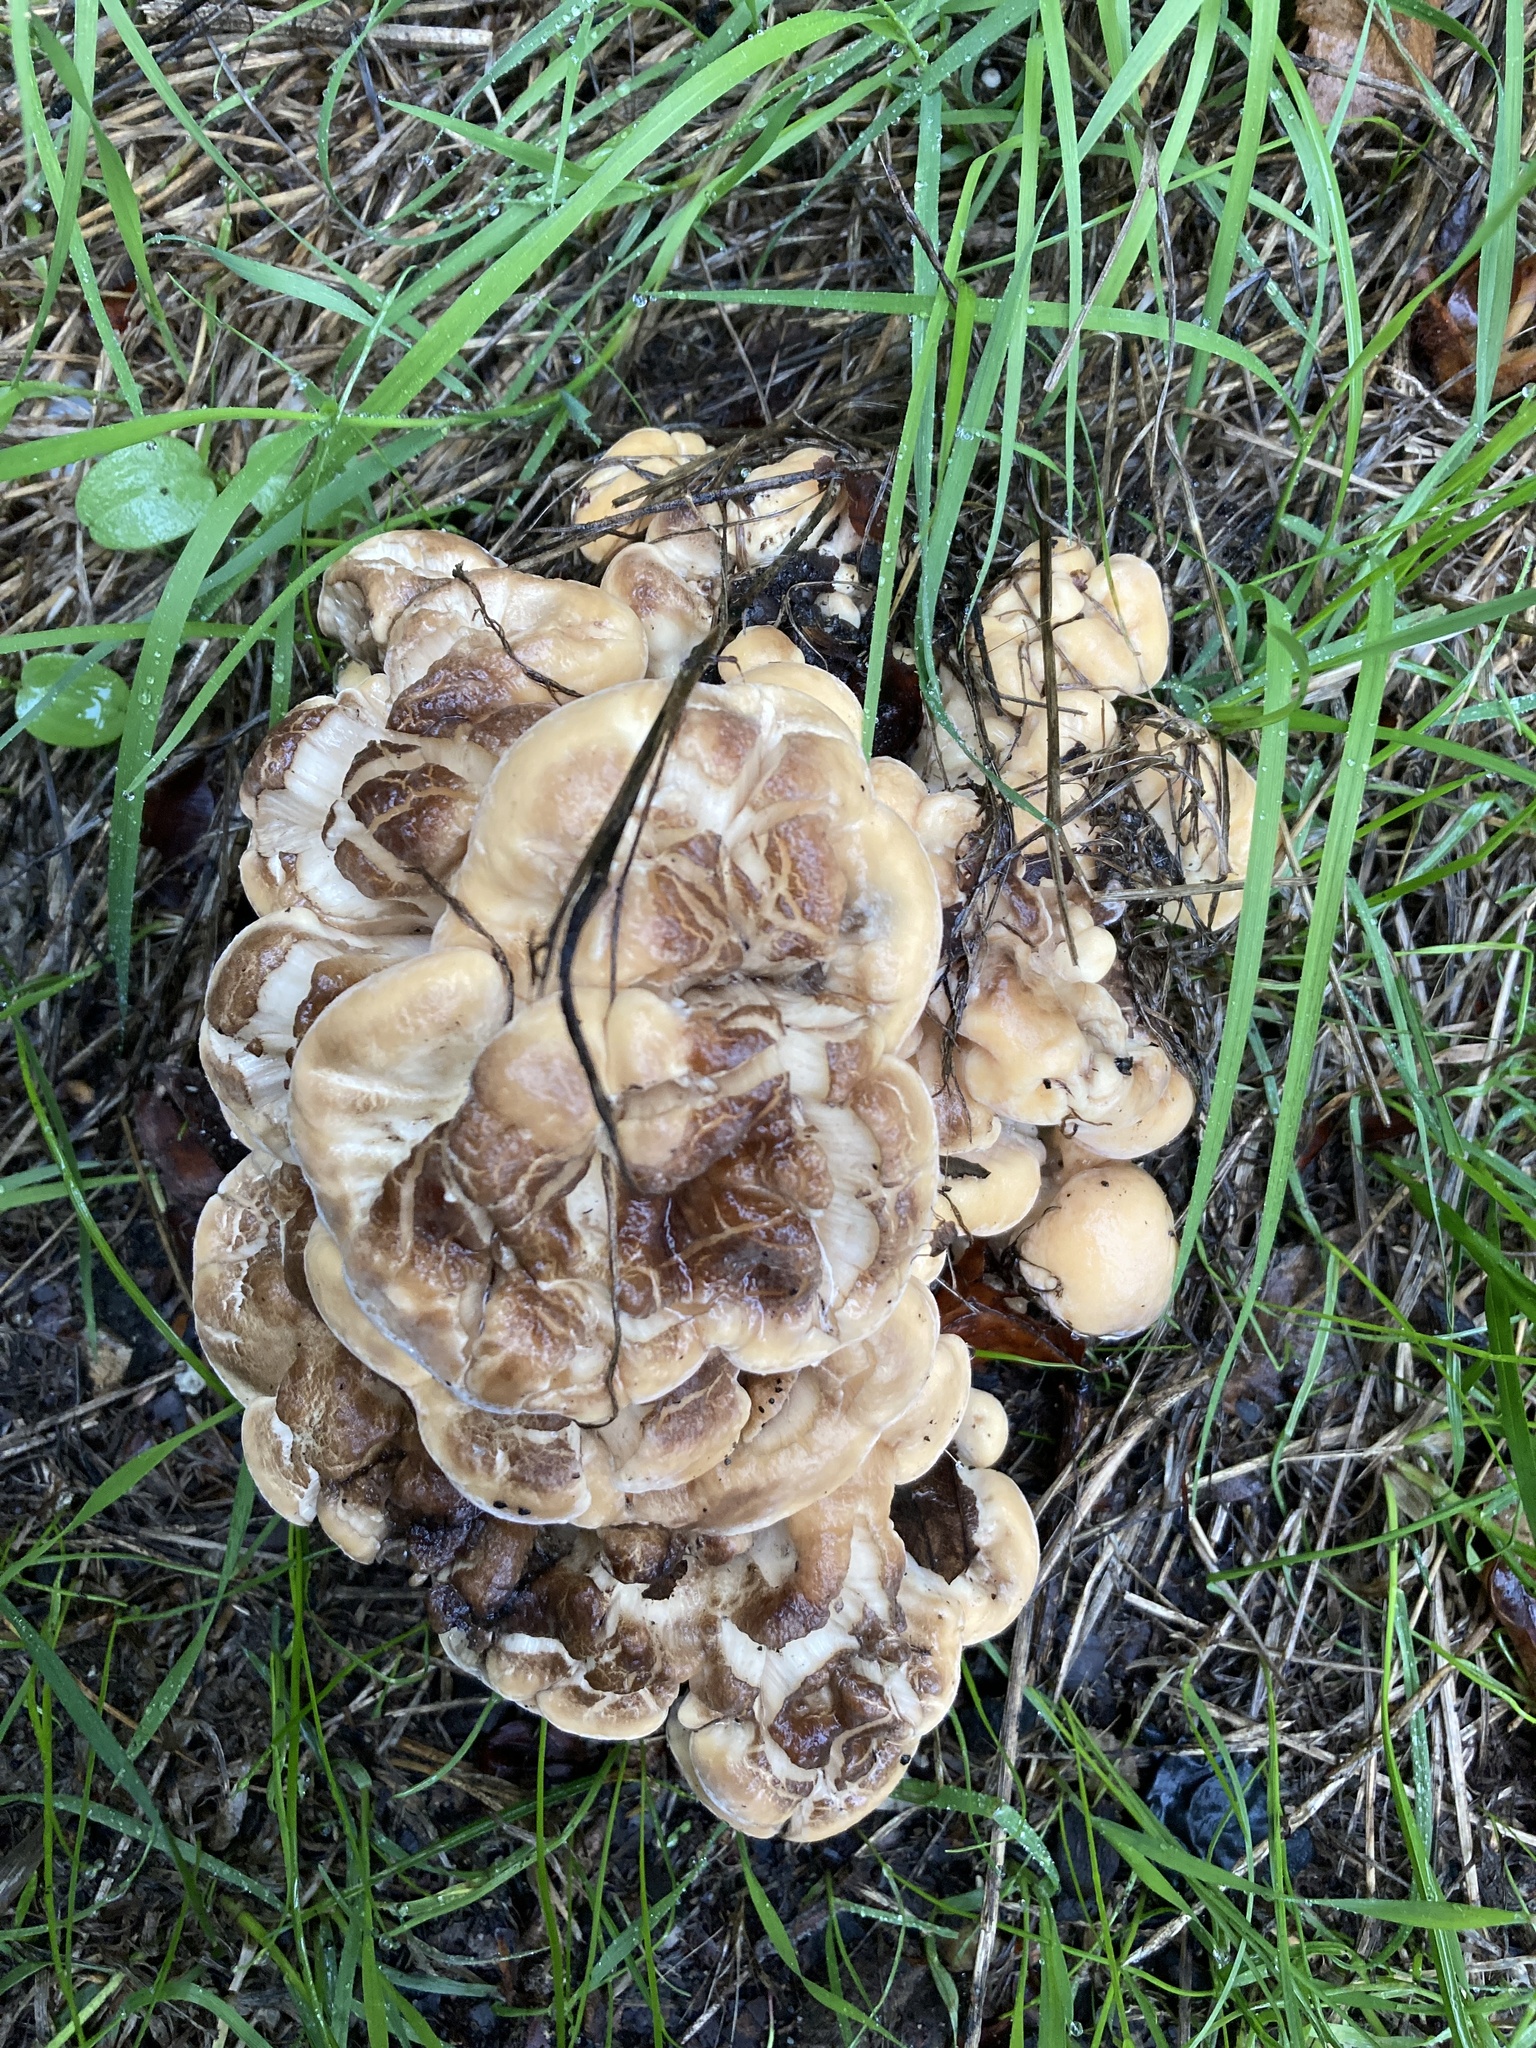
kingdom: Fungi
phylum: Basidiomycota
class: Agaricomycetes
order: Polyporales
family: Meripilaceae
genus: Meripilus
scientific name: Meripilus giganteus
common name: Giant polypore
